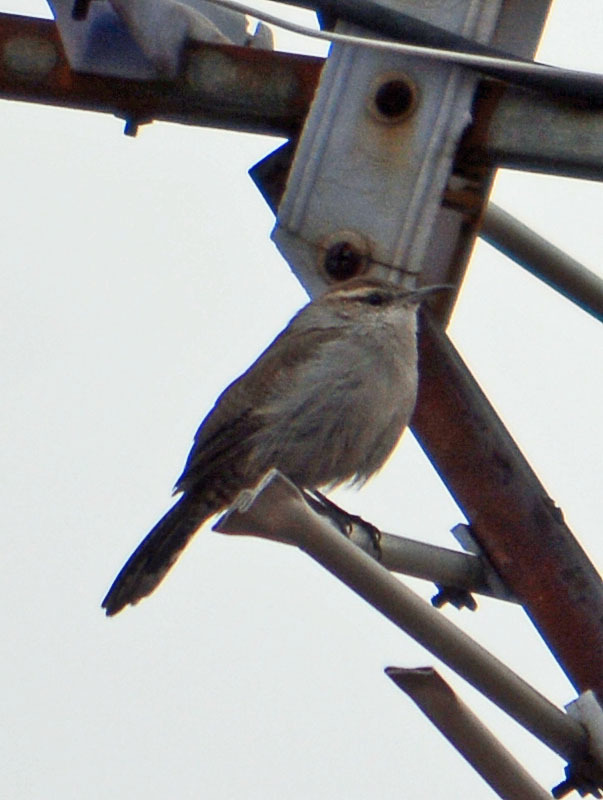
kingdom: Animalia
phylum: Chordata
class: Aves
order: Passeriformes
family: Troglodytidae
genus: Thryomanes
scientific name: Thryomanes bewickii
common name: Bewick's wren
